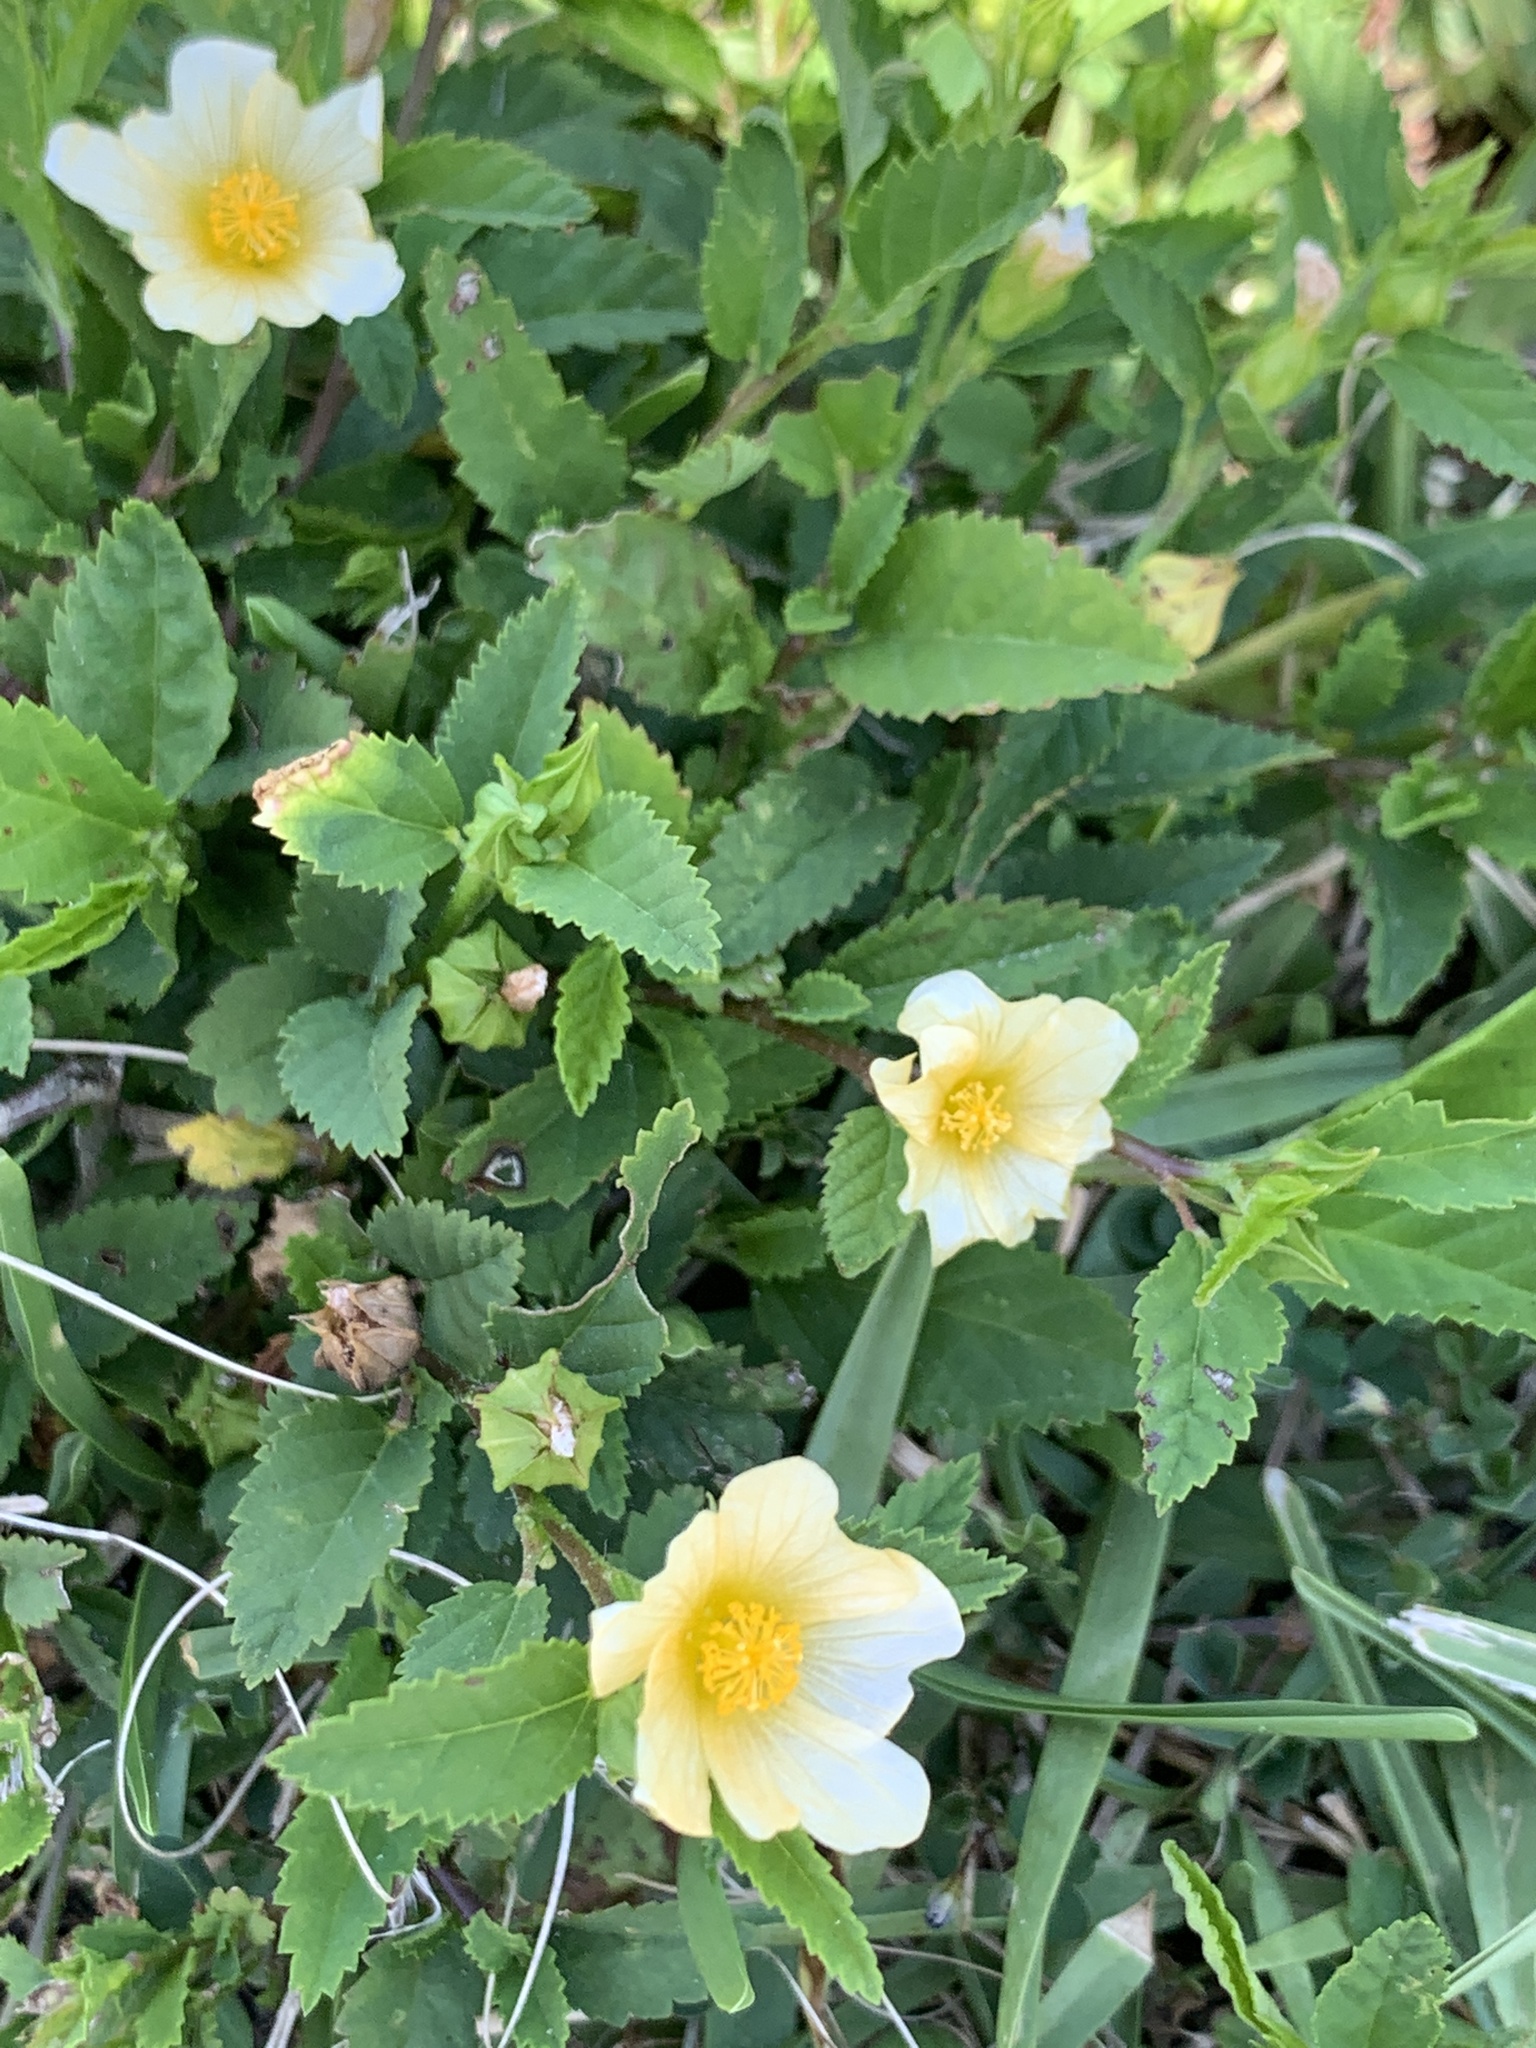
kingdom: Plantae
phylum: Tracheophyta
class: Magnoliopsida
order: Malvales
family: Malvaceae
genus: Sida
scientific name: Sida ulmifolia
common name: Broom weed
